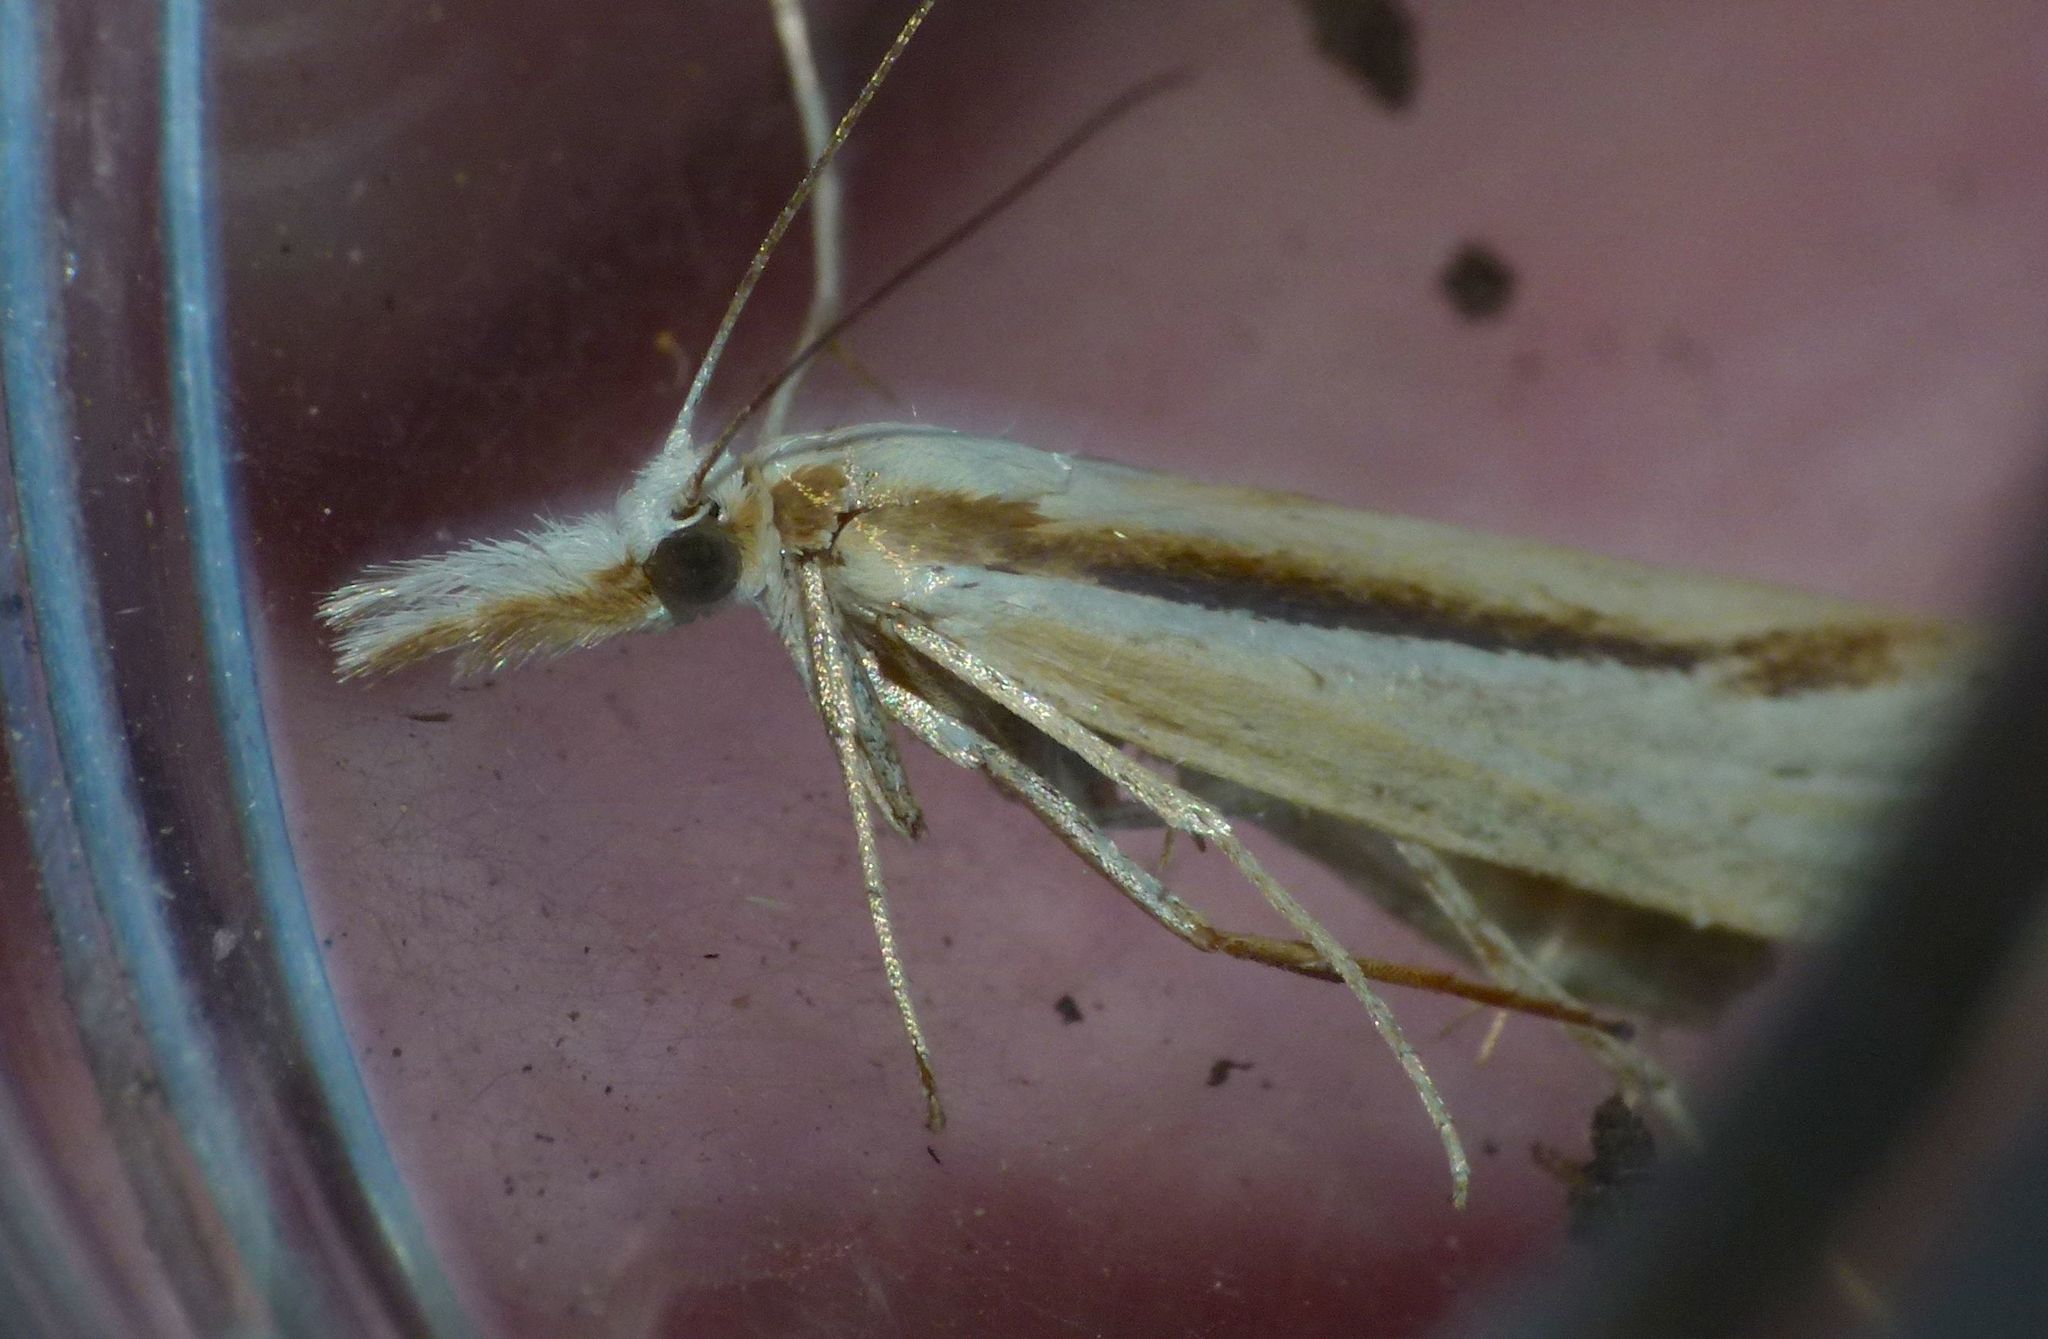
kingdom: Animalia
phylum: Arthropoda
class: Insecta
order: Lepidoptera
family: Crambidae
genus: Orocrambus
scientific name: Orocrambus ramosellus
